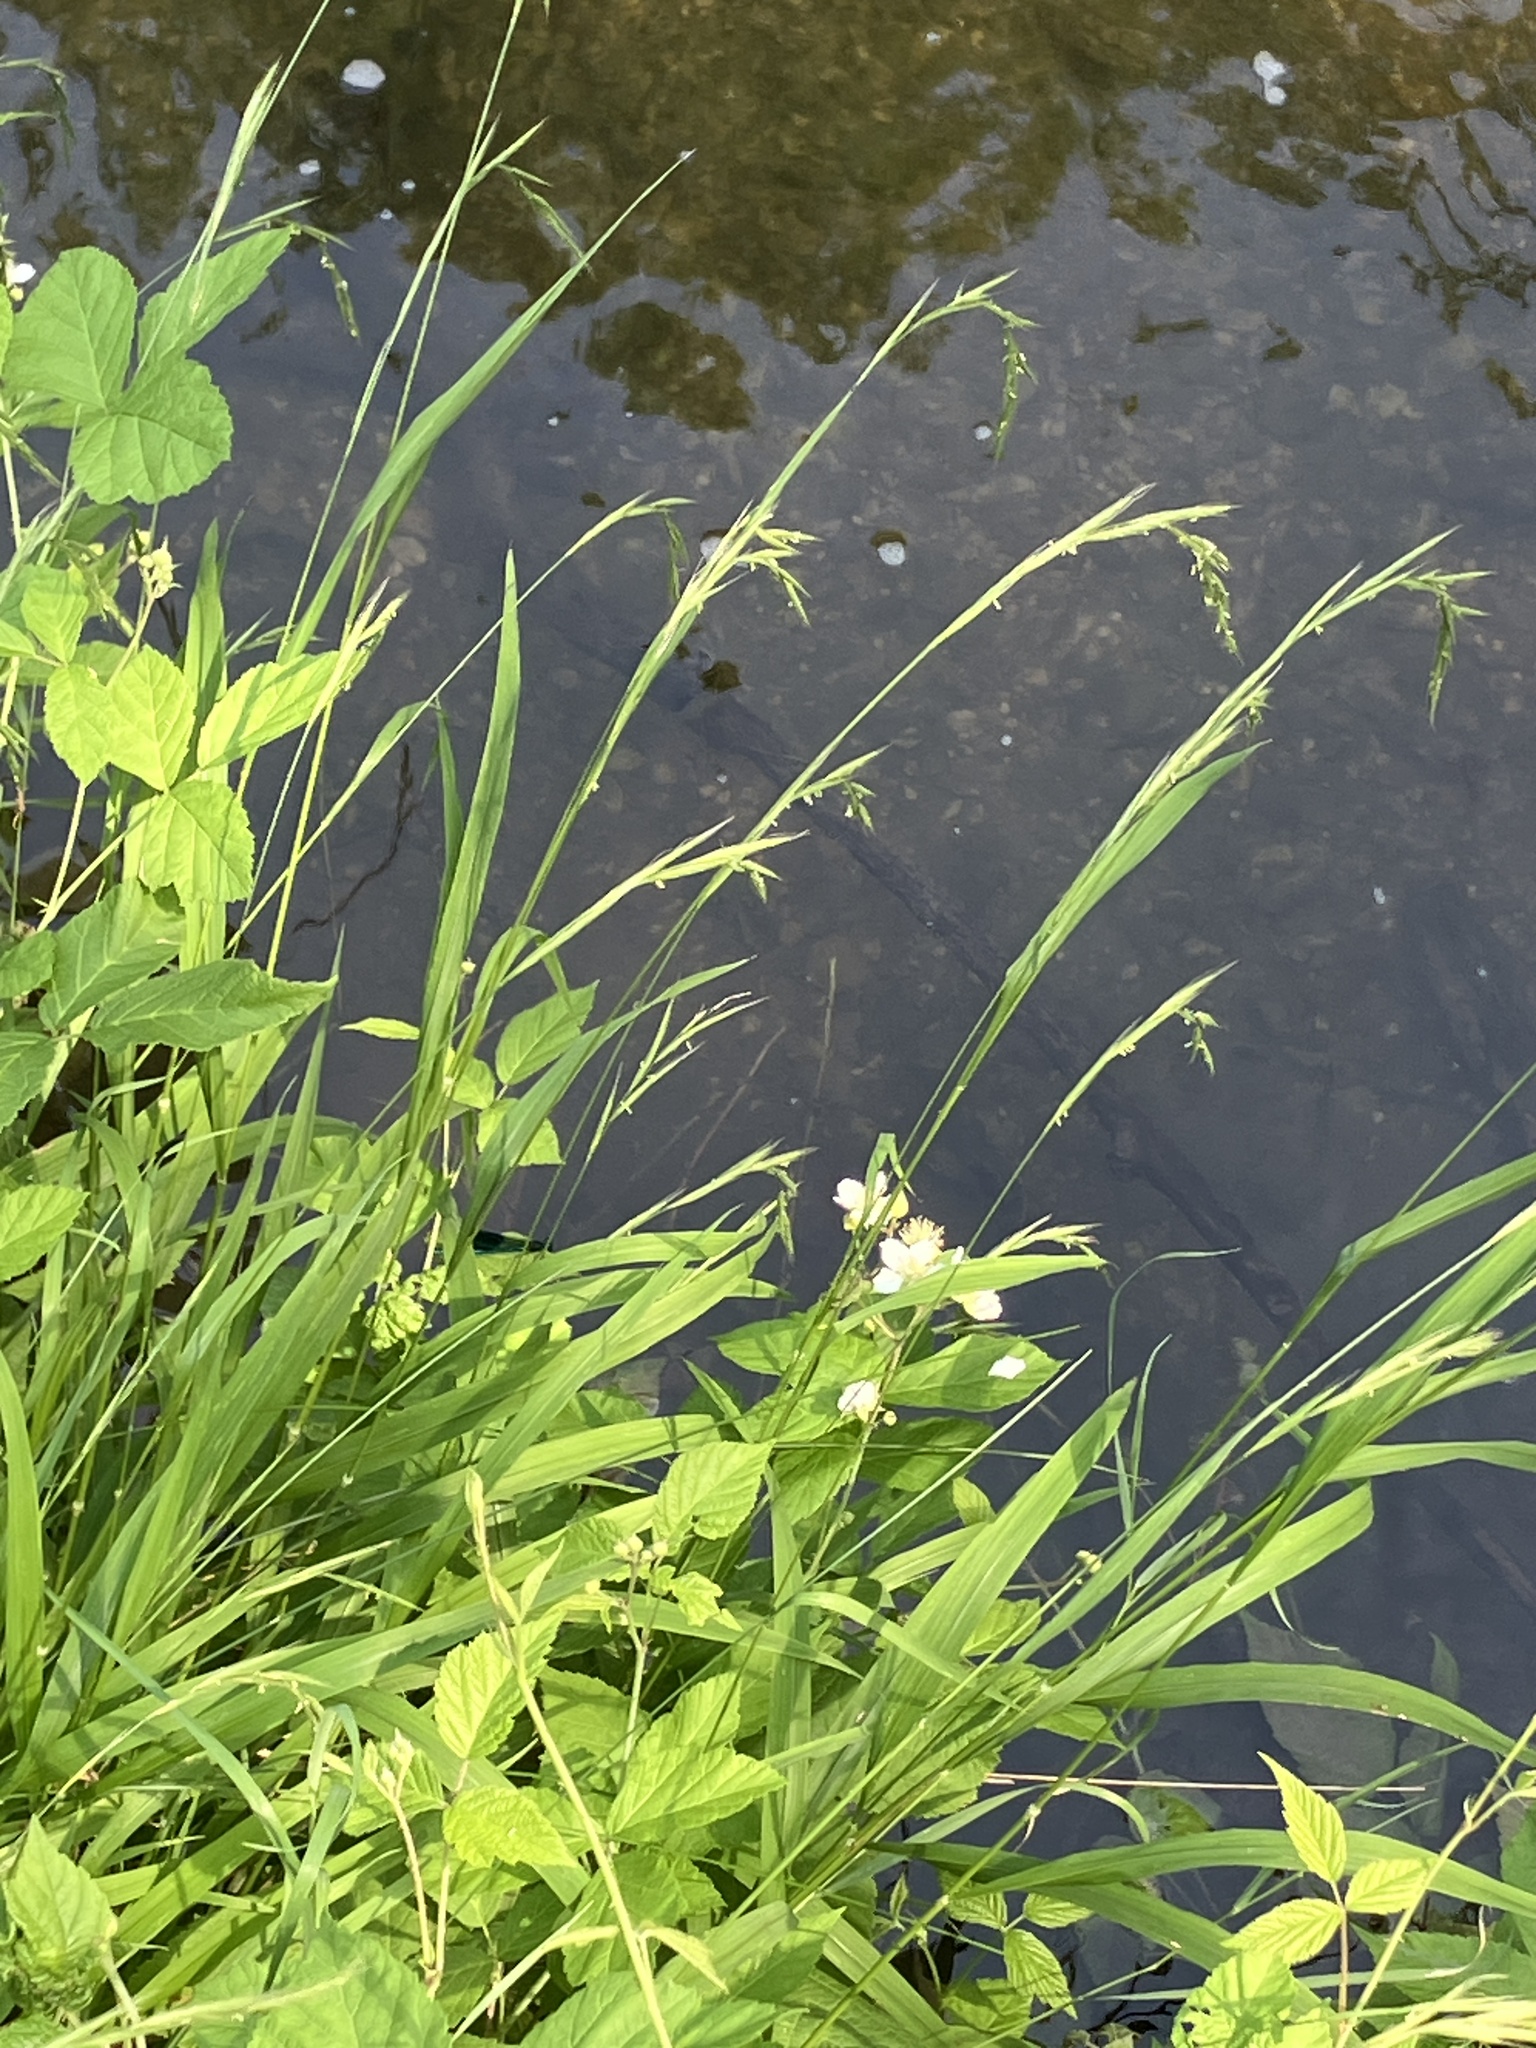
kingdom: Plantae
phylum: Tracheophyta
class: Liliopsida
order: Poales
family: Poaceae
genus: Brachypodium
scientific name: Brachypodium sylvaticum
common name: False-brome
